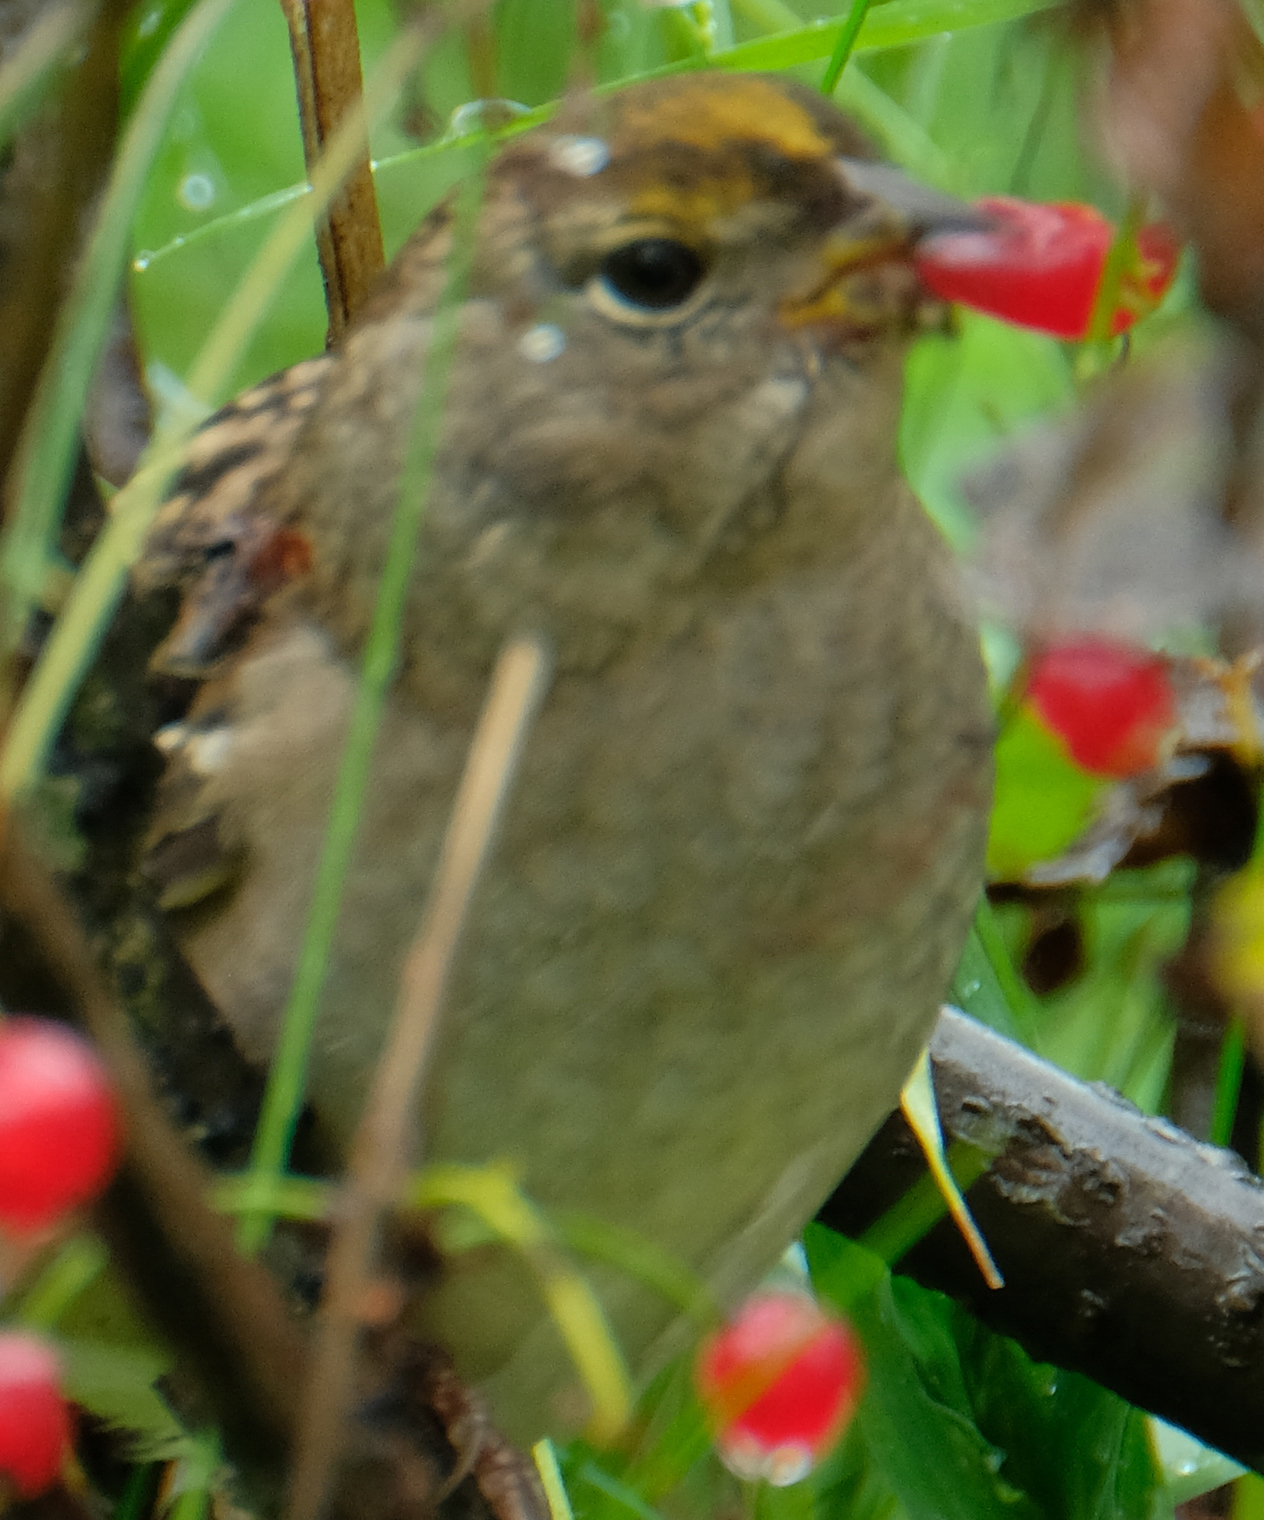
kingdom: Animalia
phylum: Chordata
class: Aves
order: Passeriformes
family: Passerellidae
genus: Zonotrichia
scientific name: Zonotrichia atricapilla
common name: Golden-crowned sparrow
